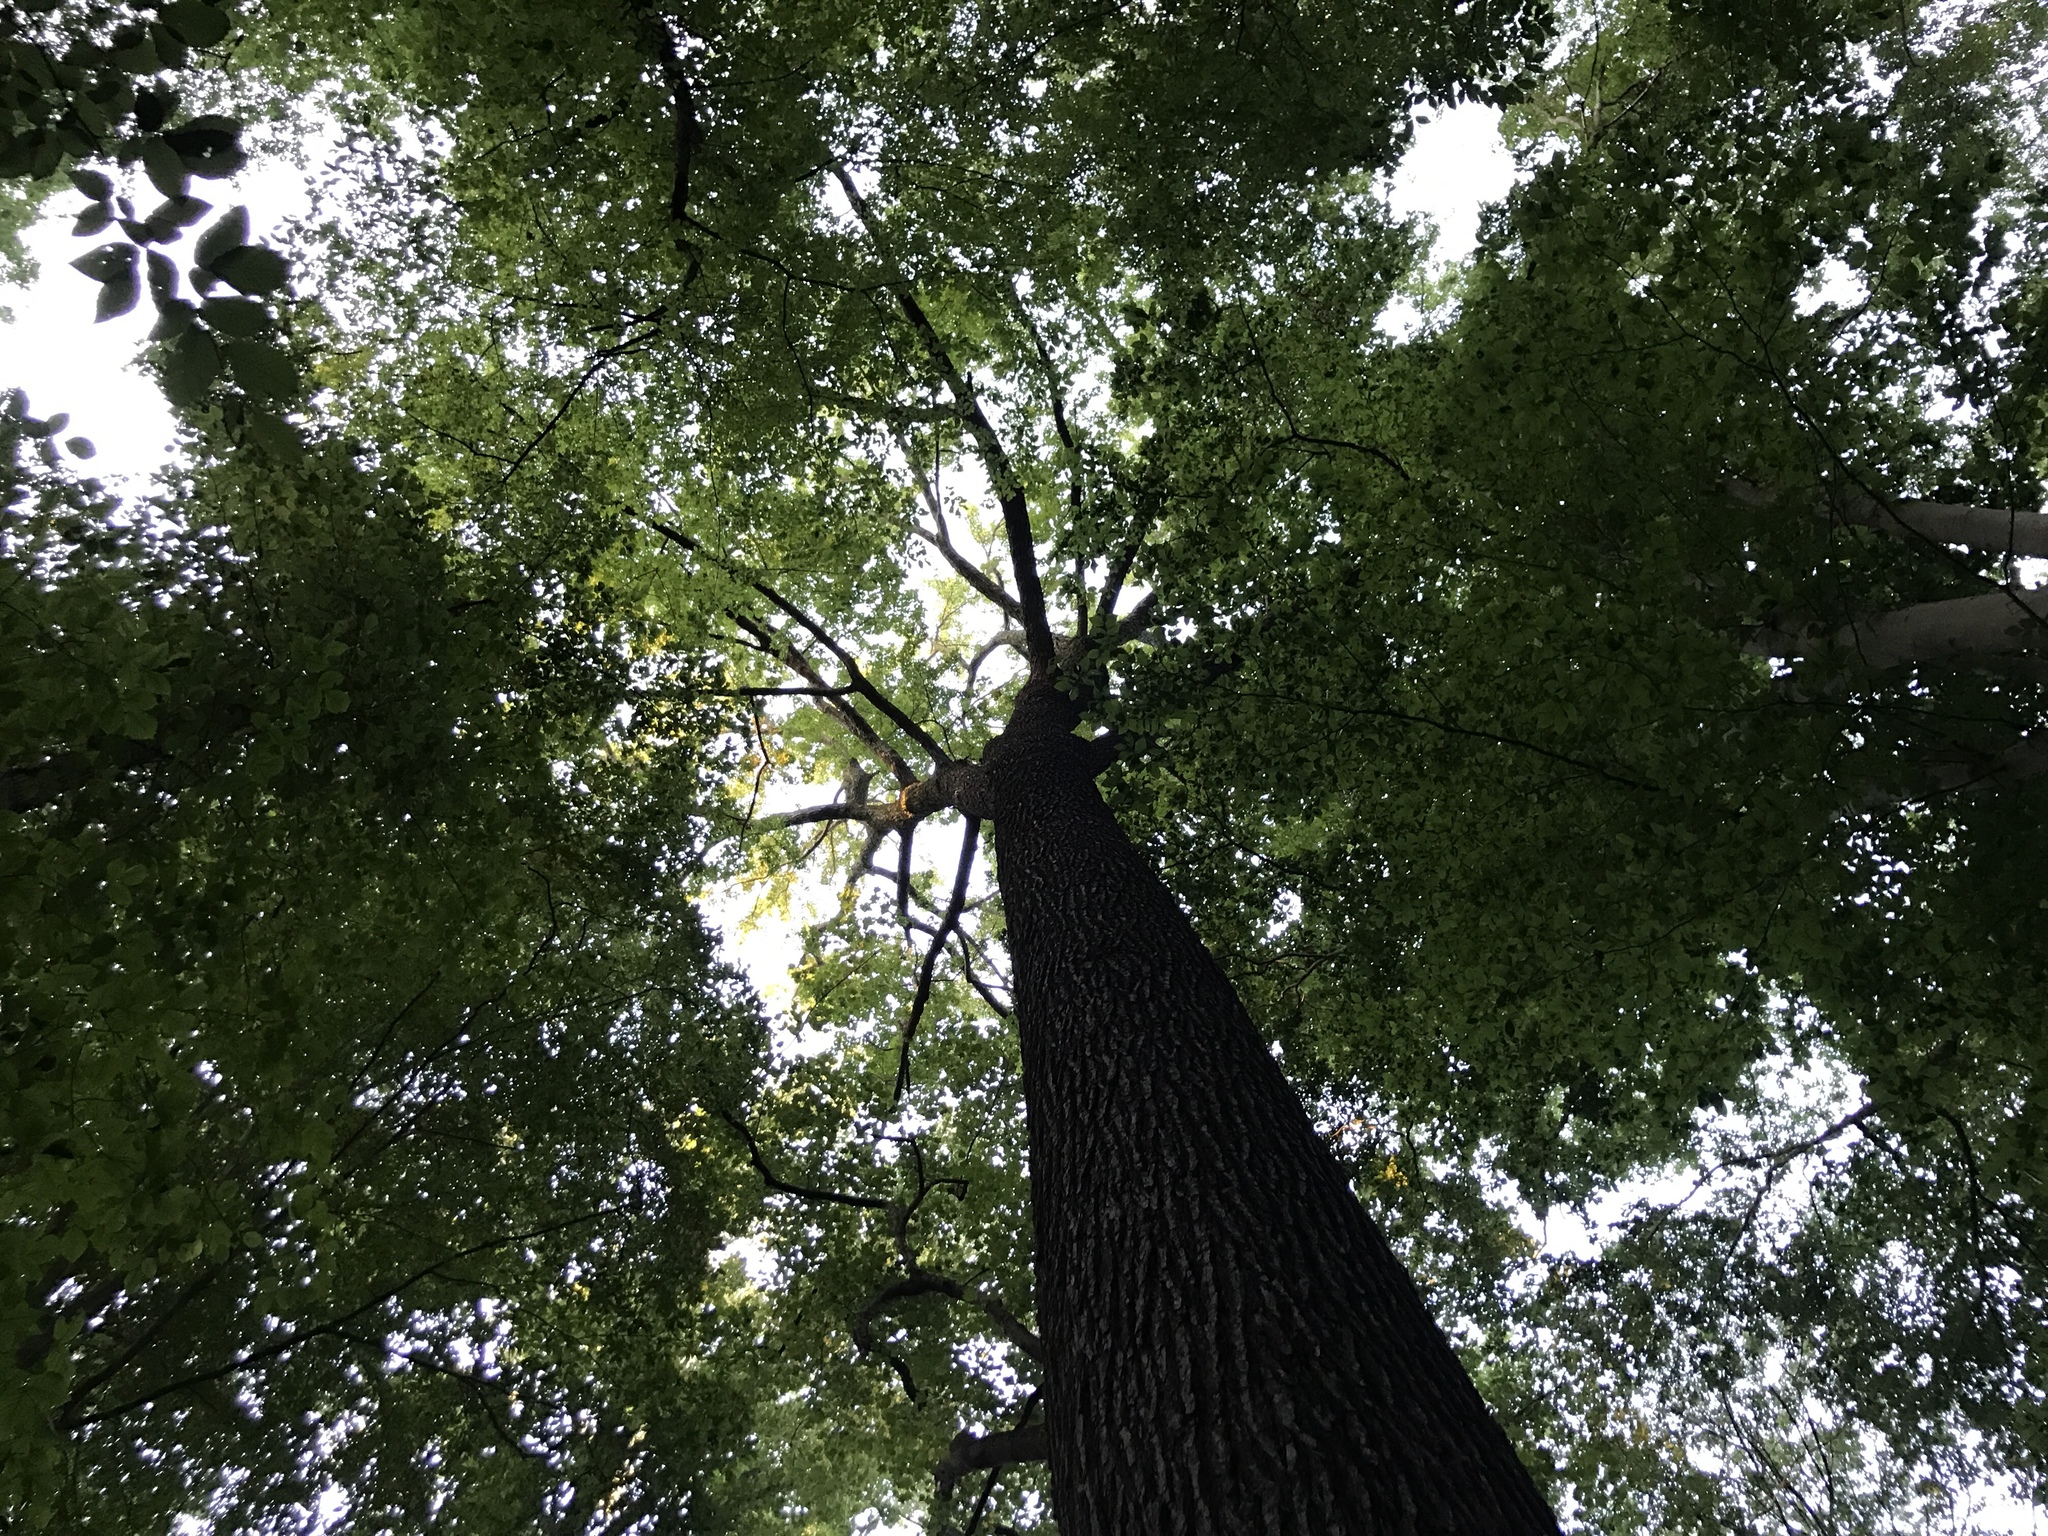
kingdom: Plantae
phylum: Tracheophyta
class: Magnoliopsida
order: Saxifragales
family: Altingiaceae
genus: Liquidambar
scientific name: Liquidambar styraciflua
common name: Sweet gum
